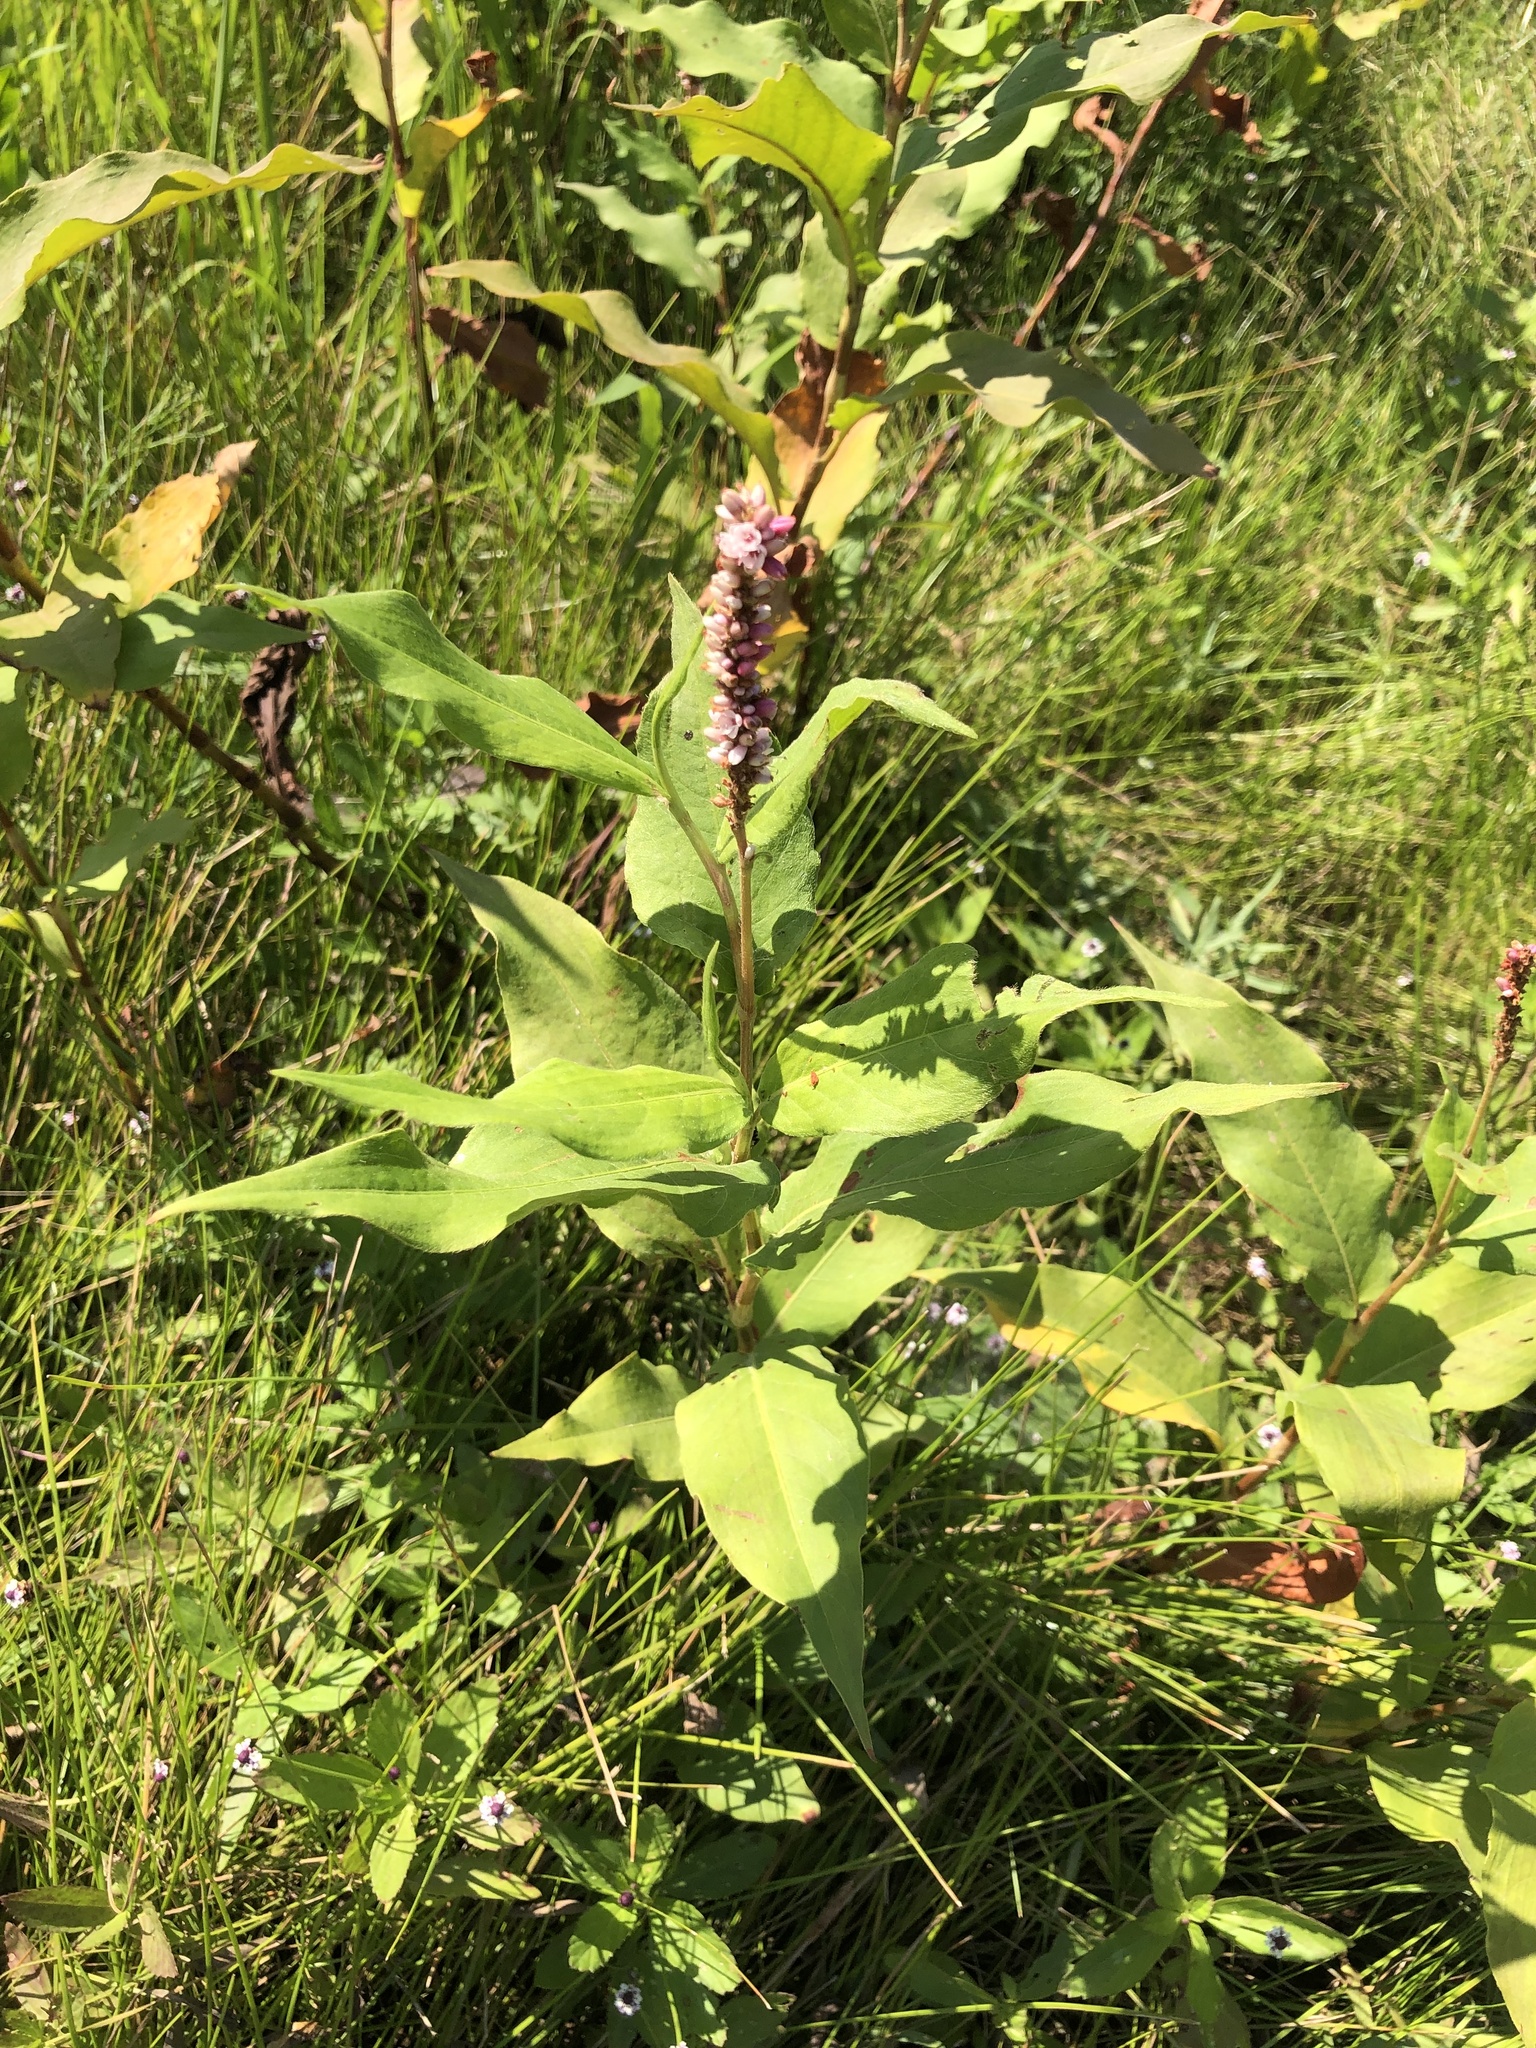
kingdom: Plantae
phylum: Tracheophyta
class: Magnoliopsida
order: Caryophyllales
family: Polygonaceae
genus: Persicaria
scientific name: Persicaria amphibia
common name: Amphibious bistort
